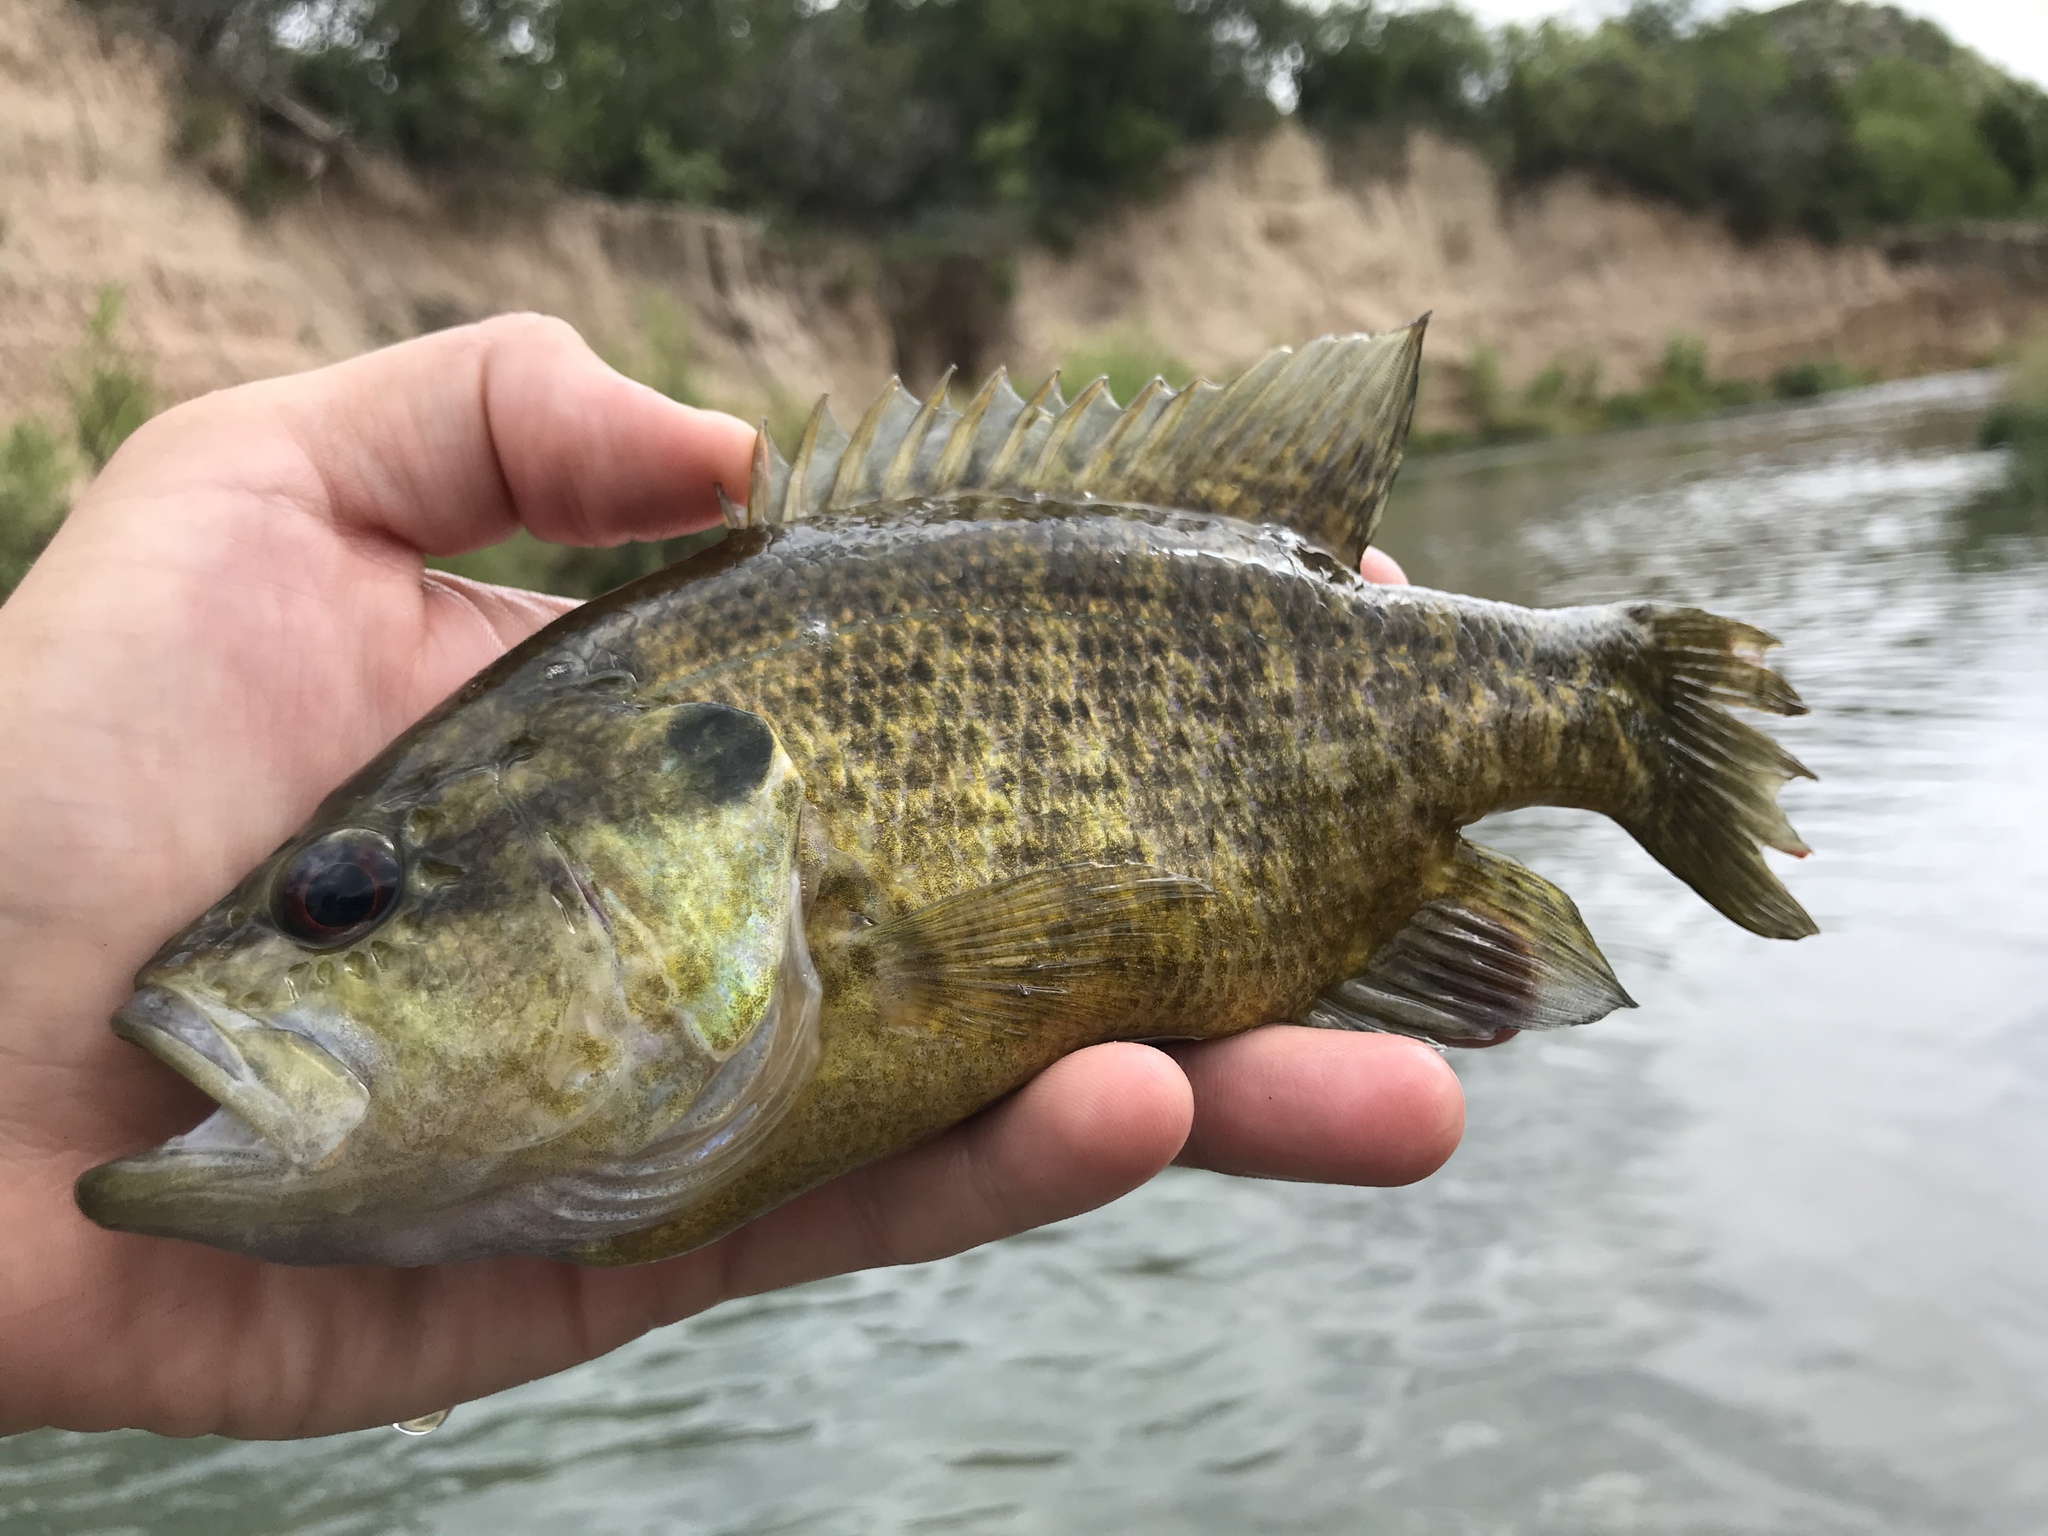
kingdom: Animalia
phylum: Chordata
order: Perciformes
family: Centrarchidae
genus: Lepomis
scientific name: Lepomis gulosus
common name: Warmouth
